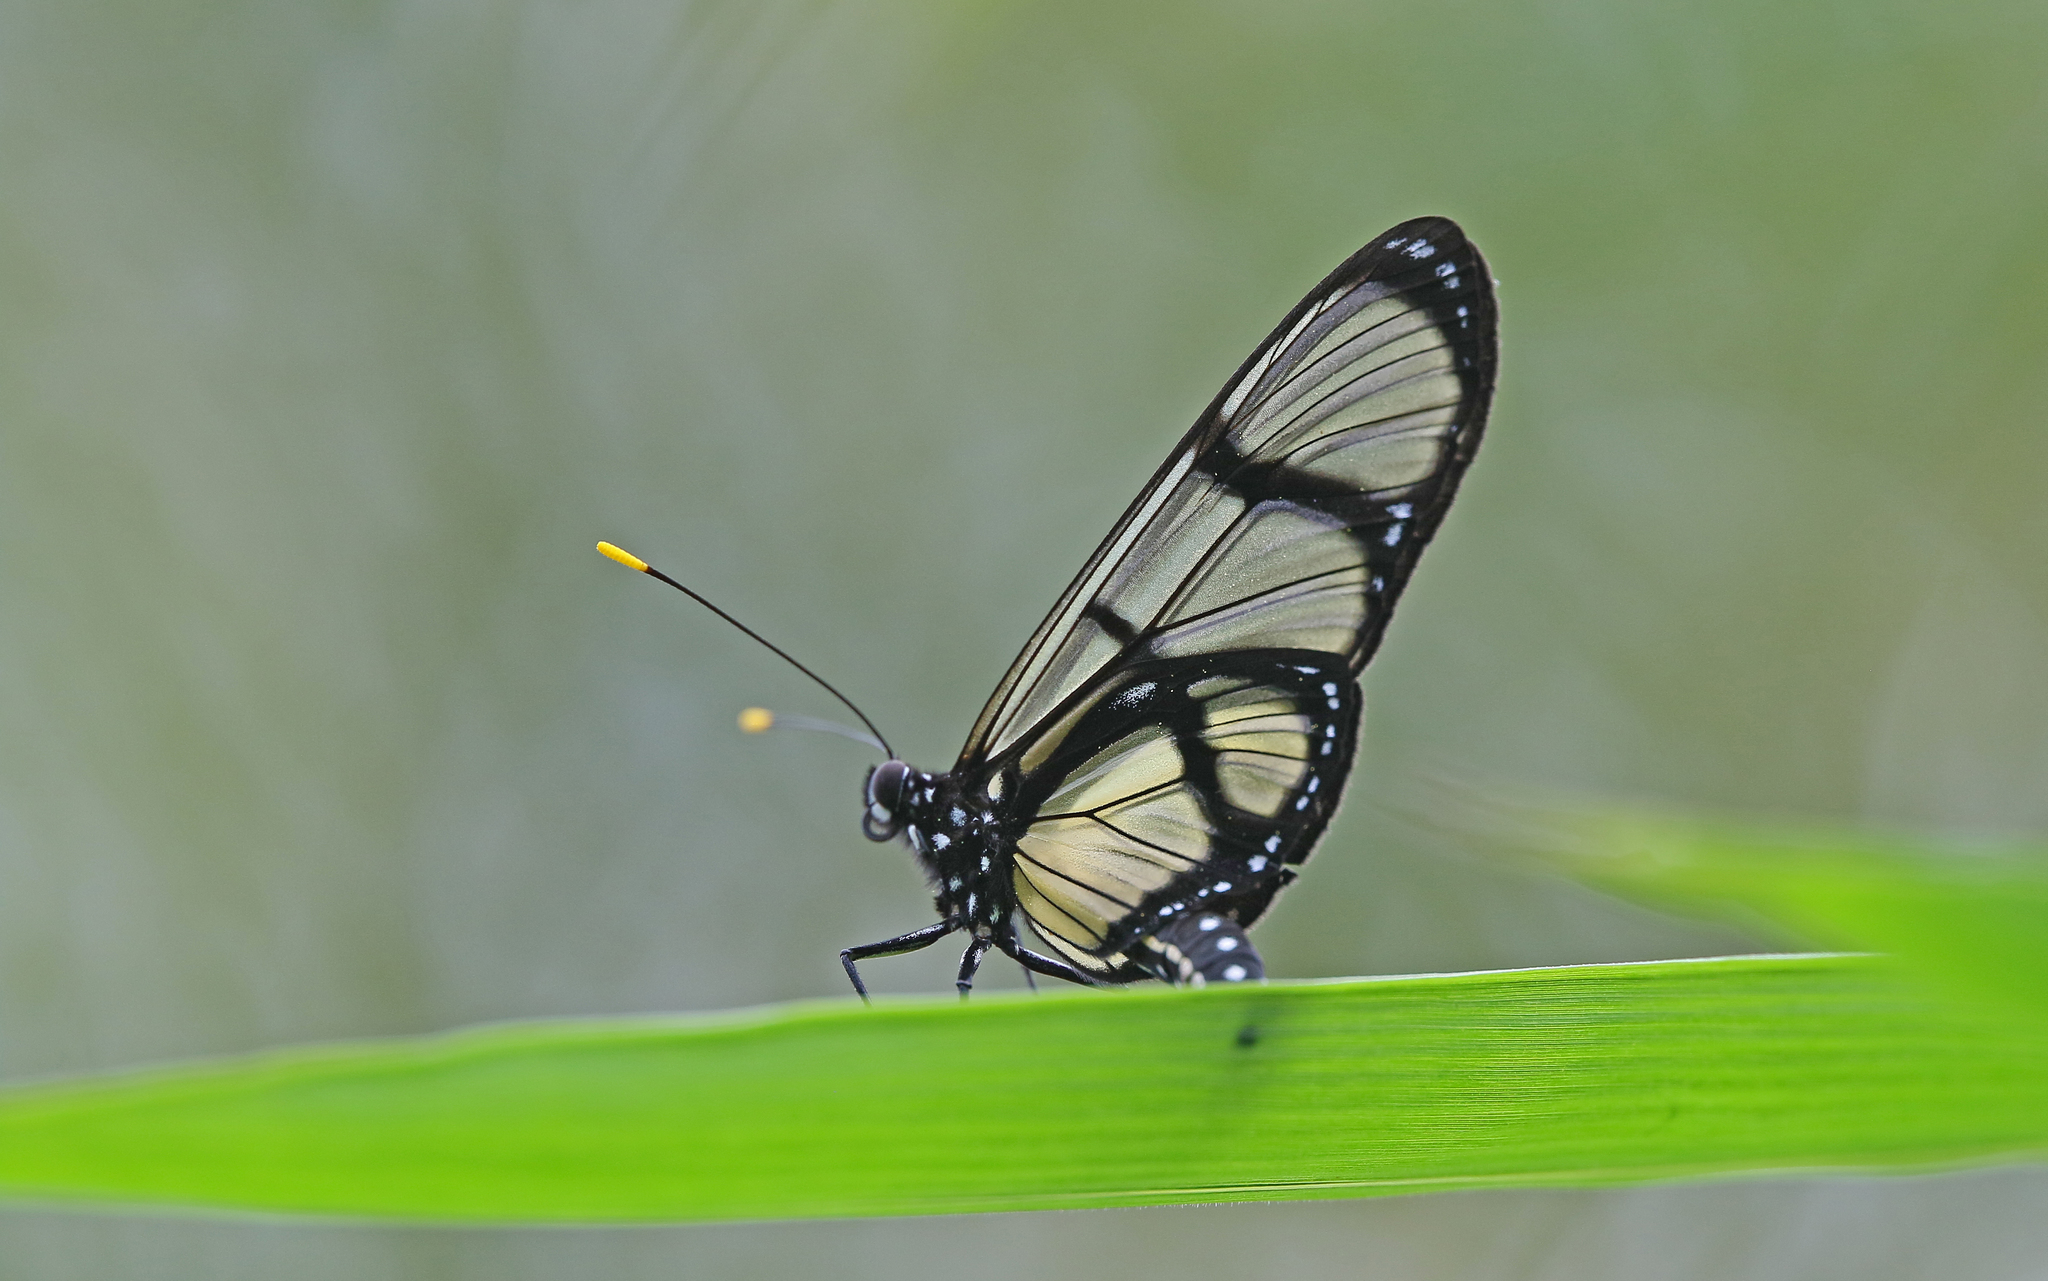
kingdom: Animalia
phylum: Arthropoda
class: Insecta
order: Lepidoptera
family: Nymphalidae
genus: Methona
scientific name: Methona confusa
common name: Confusa tigerwing
